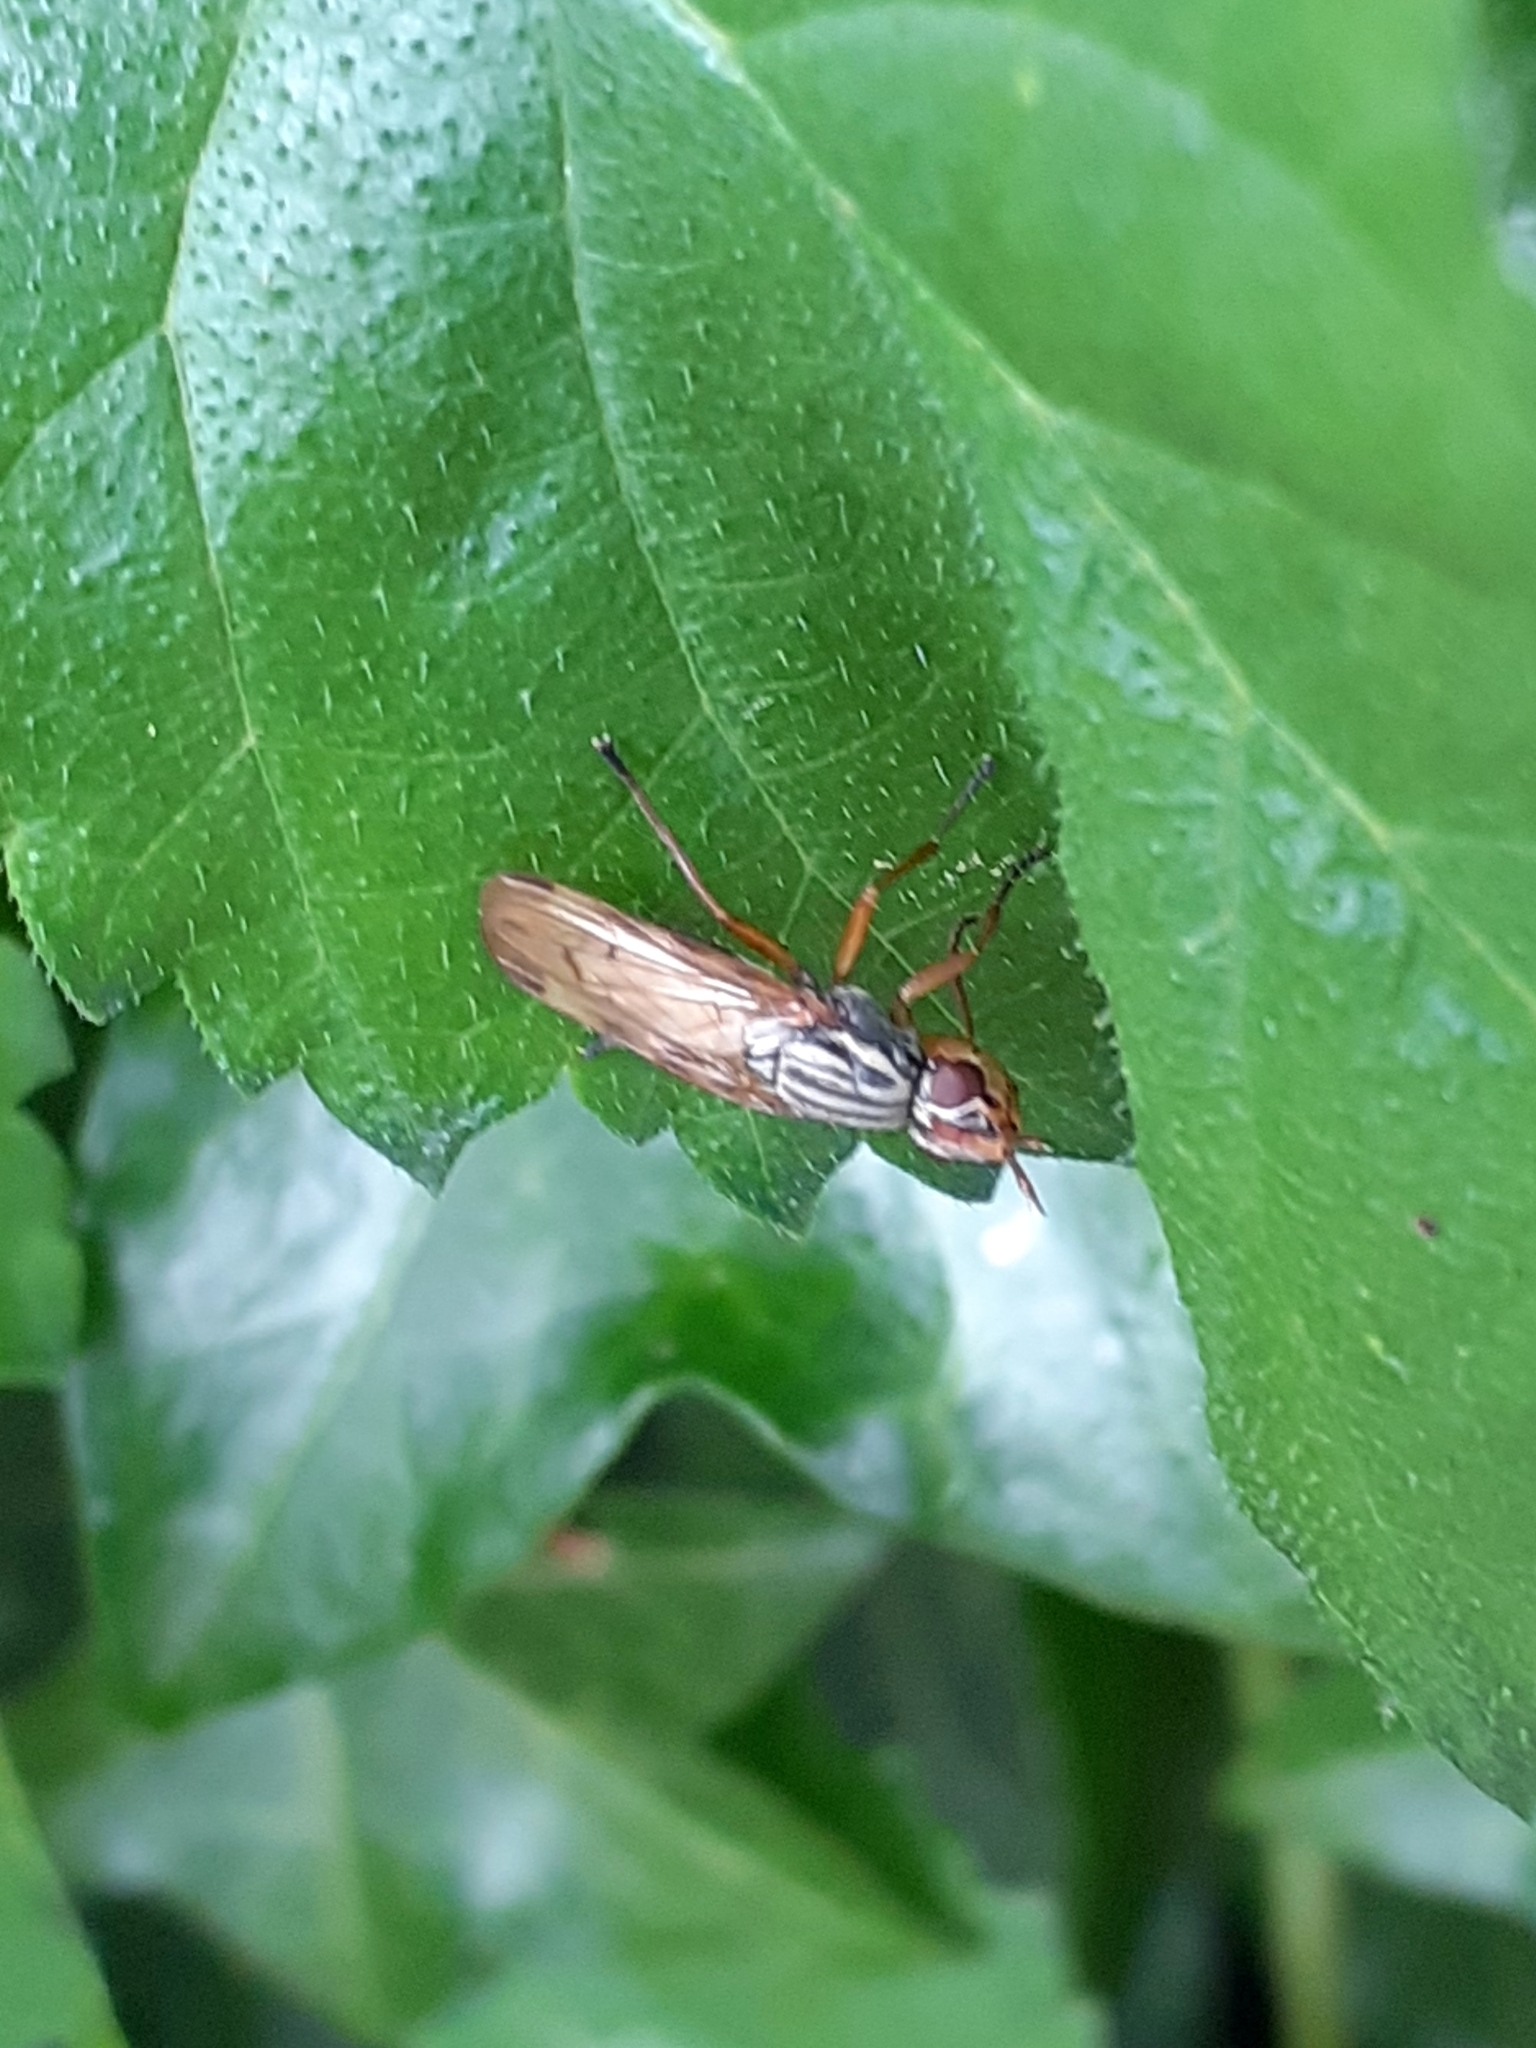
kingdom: Animalia
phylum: Arthropoda
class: Insecta
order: Diptera
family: Ulidiidae
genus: Dorycera
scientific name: Dorycera aquatica
